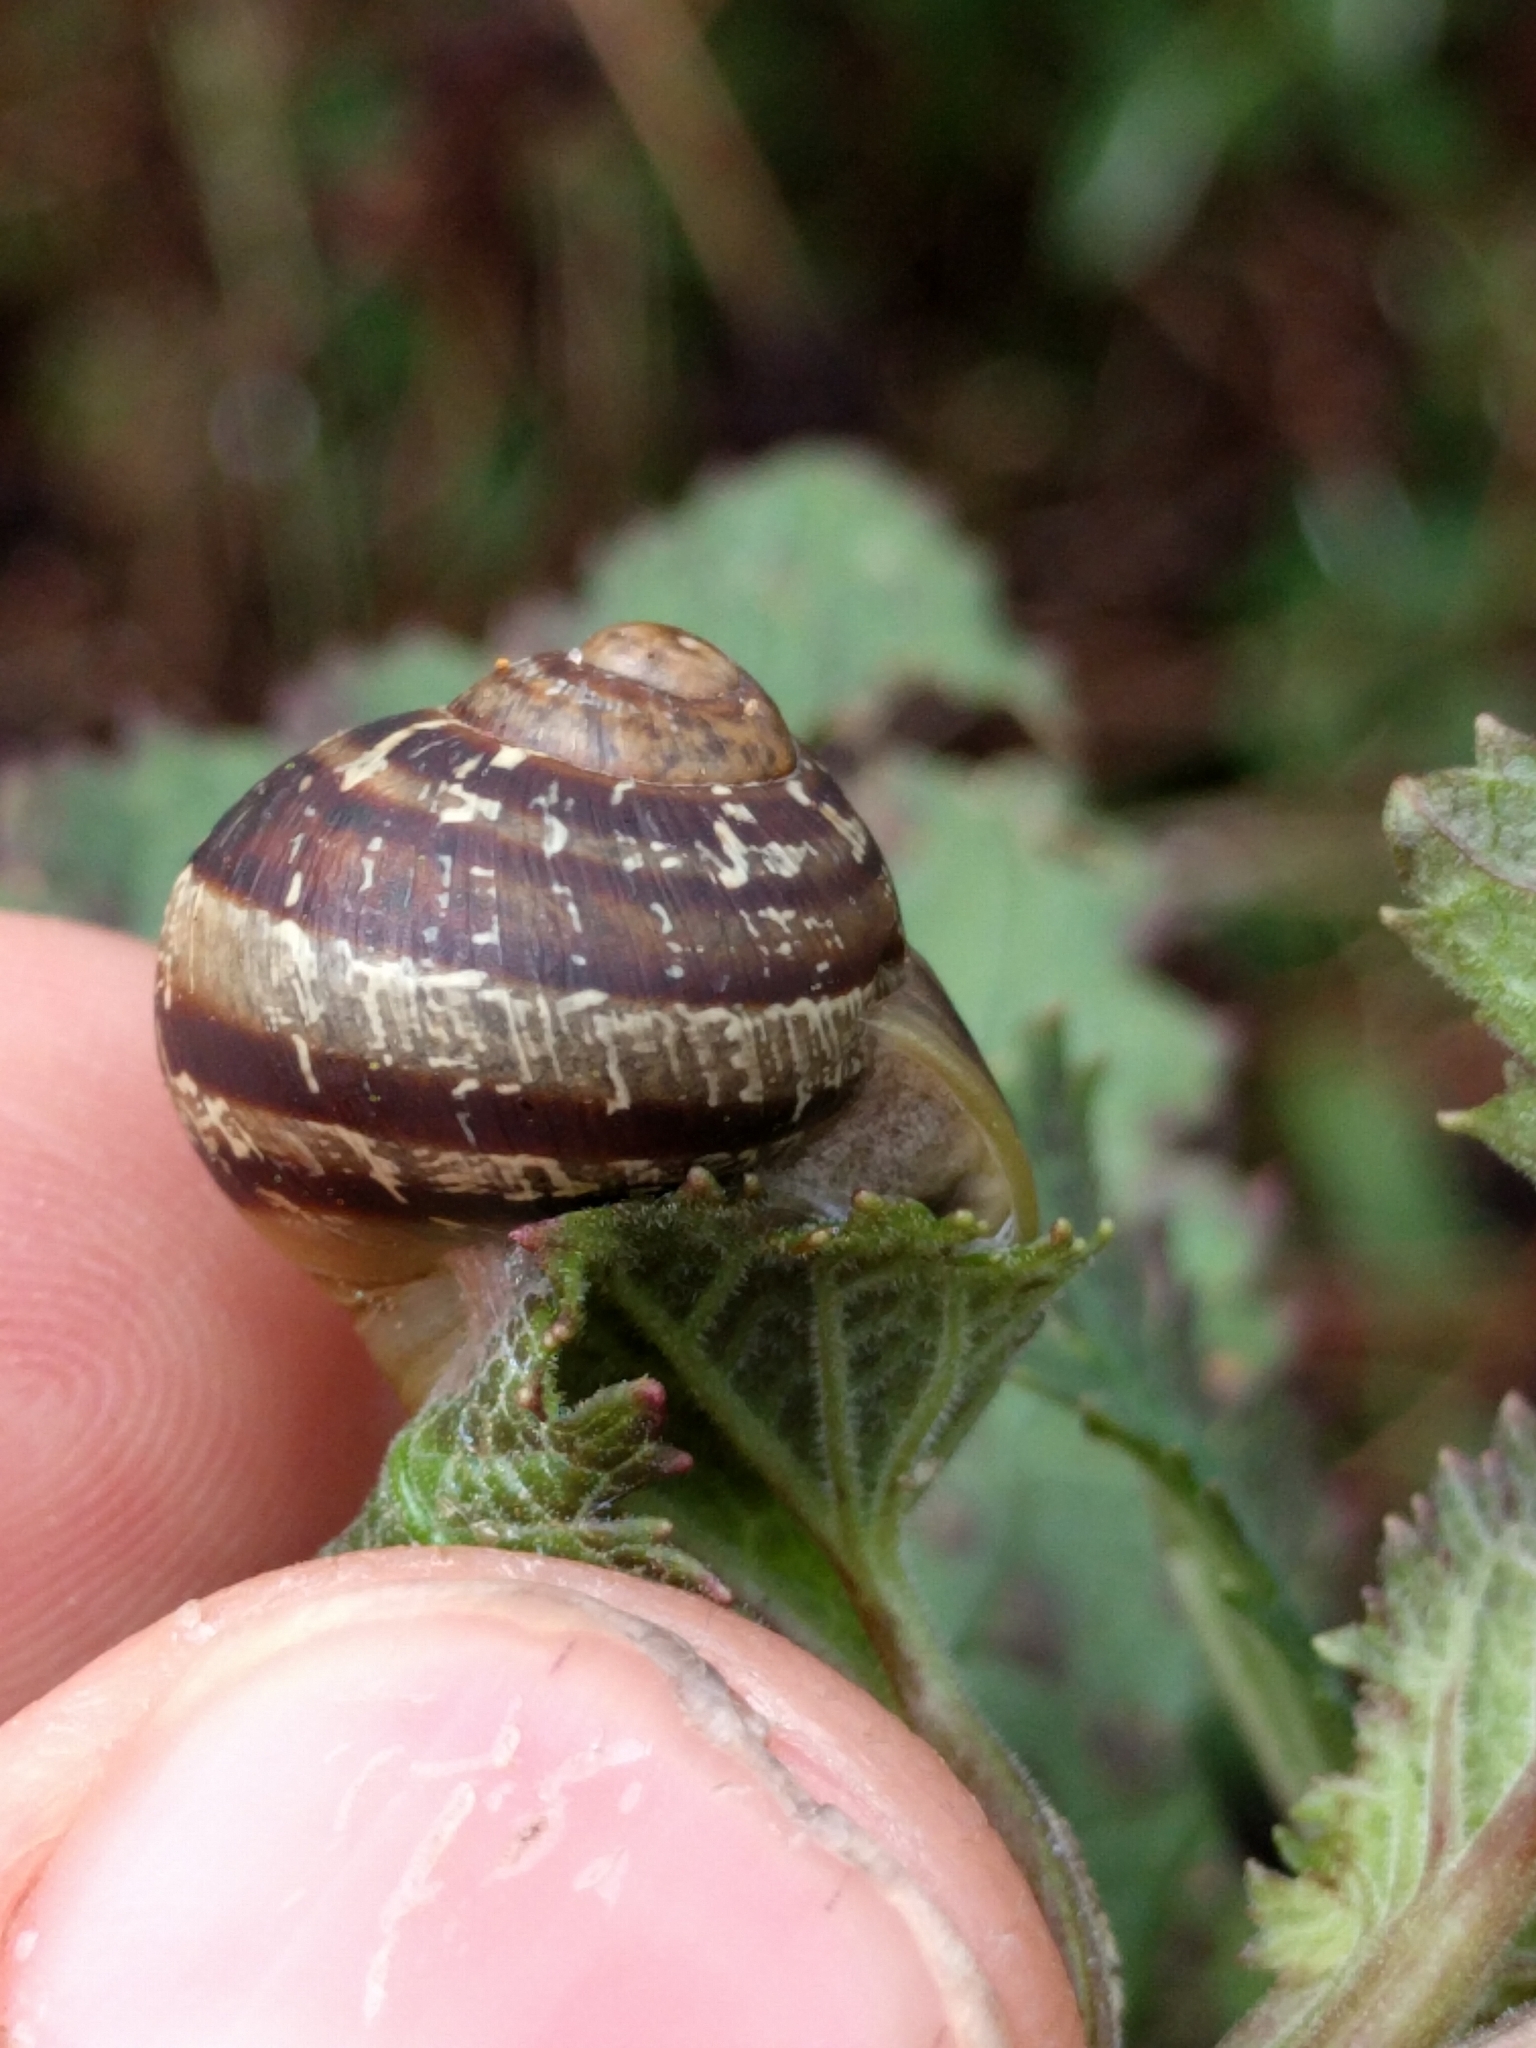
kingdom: Animalia
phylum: Mollusca
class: Gastropoda
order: Stylommatophora
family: Helicidae
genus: Cornu
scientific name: Cornu aspersum
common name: Brown garden snail
